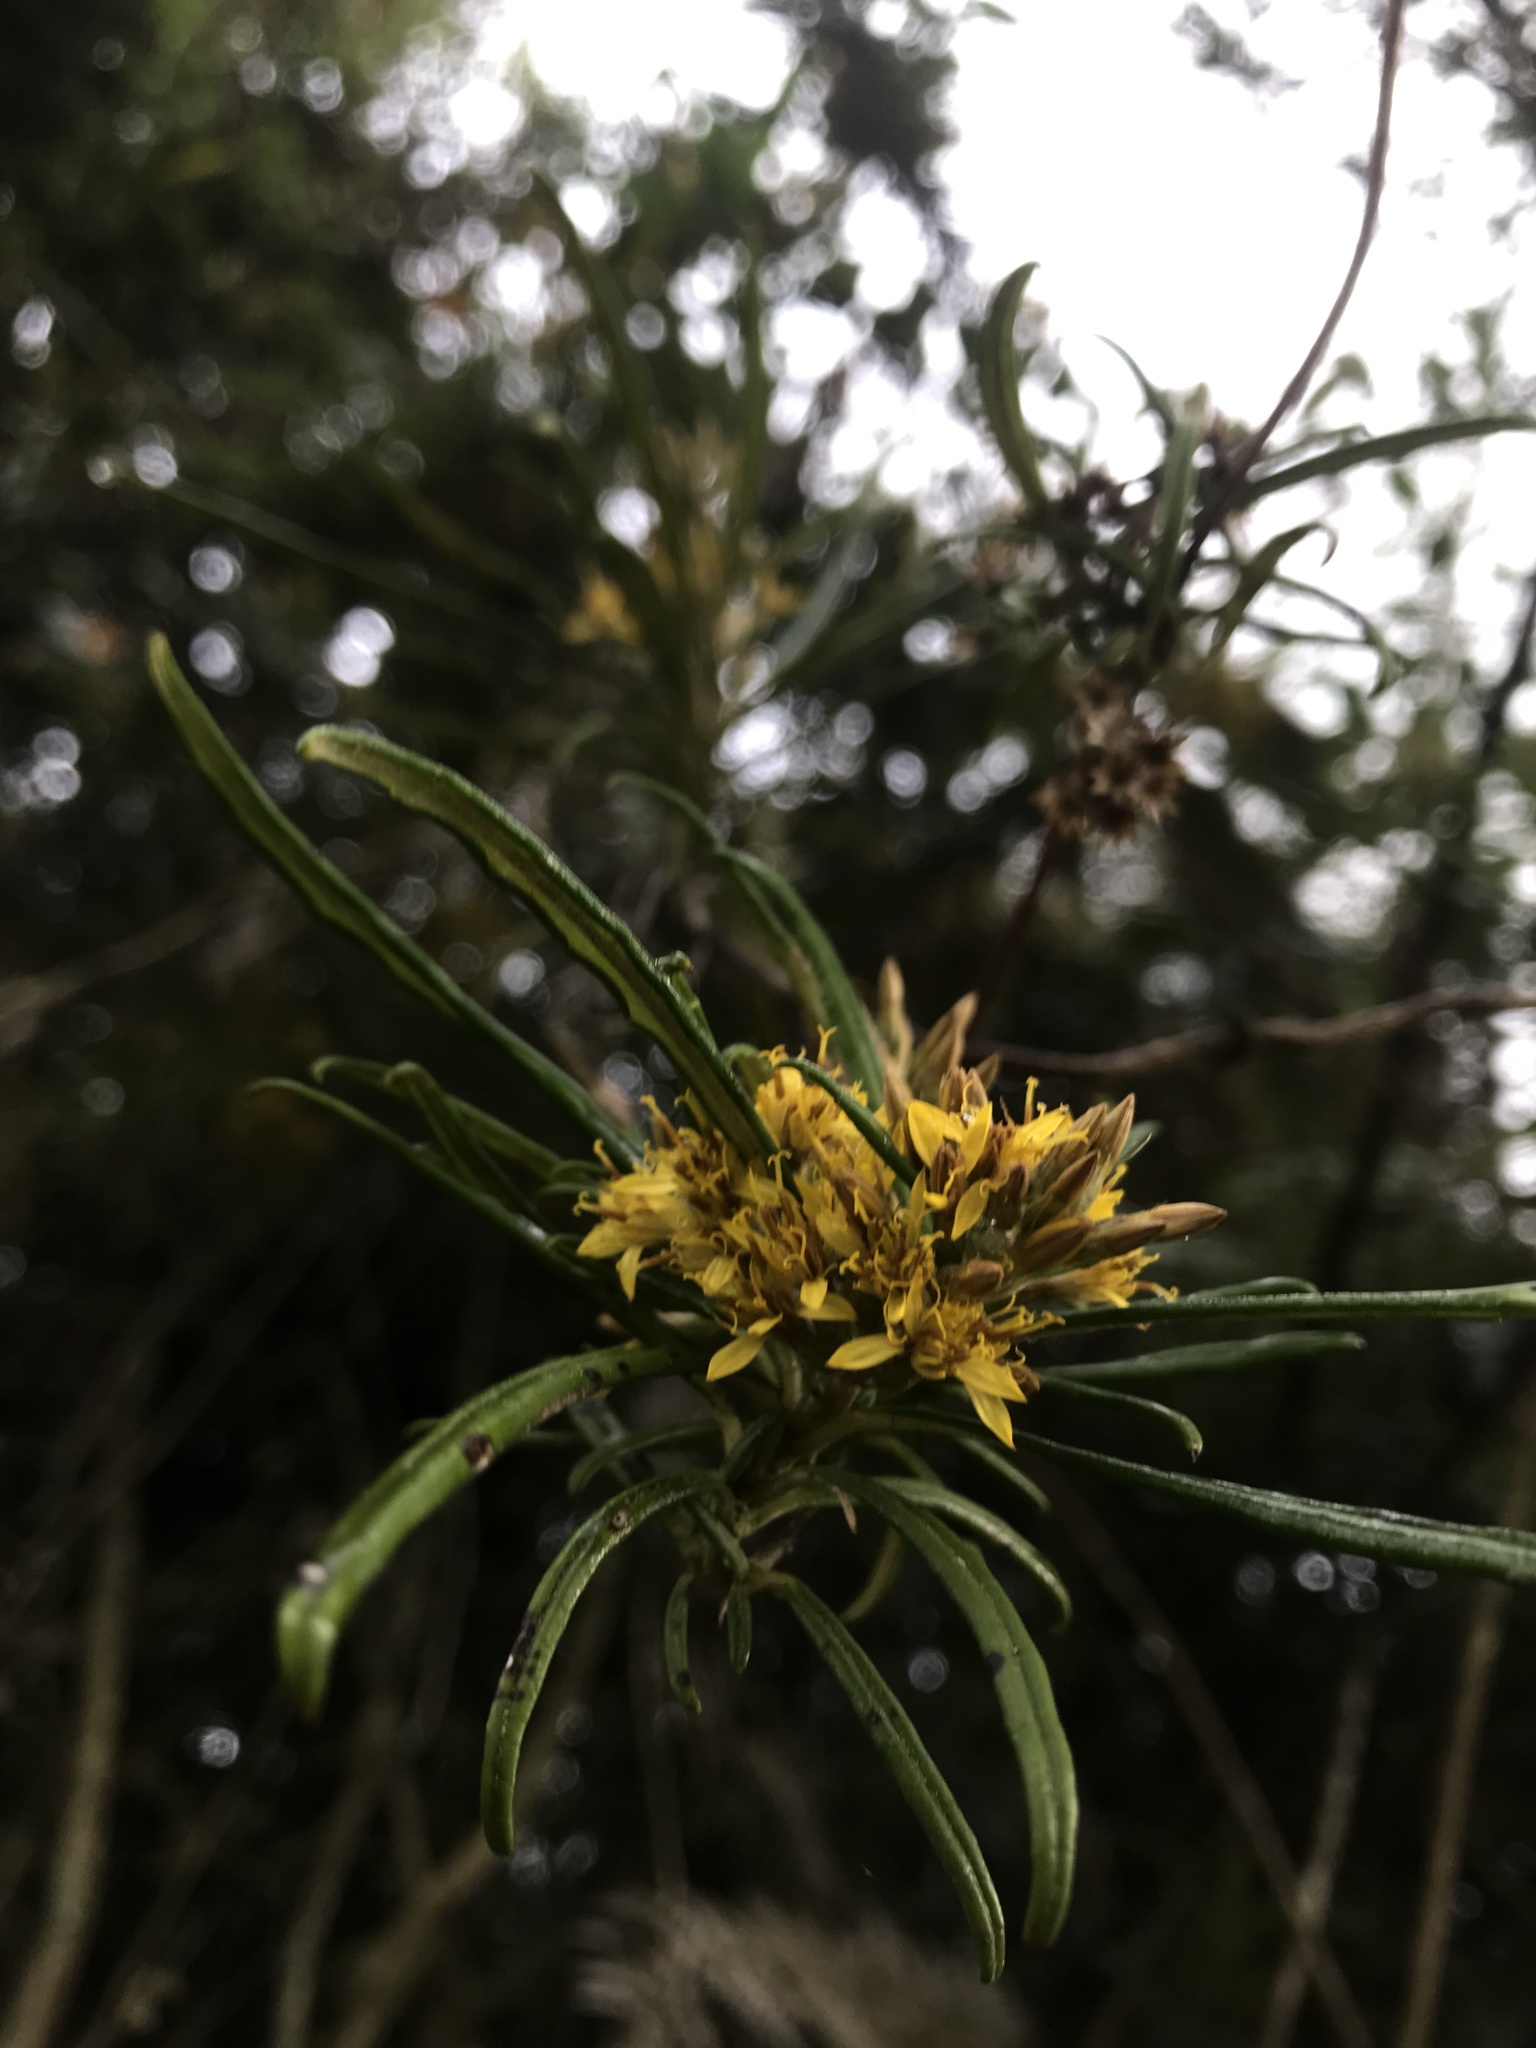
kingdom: Plantae
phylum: Tracheophyta
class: Magnoliopsida
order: Asterales
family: Asteraceae
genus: Oligactis
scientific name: Oligactis garcia-barrigae
